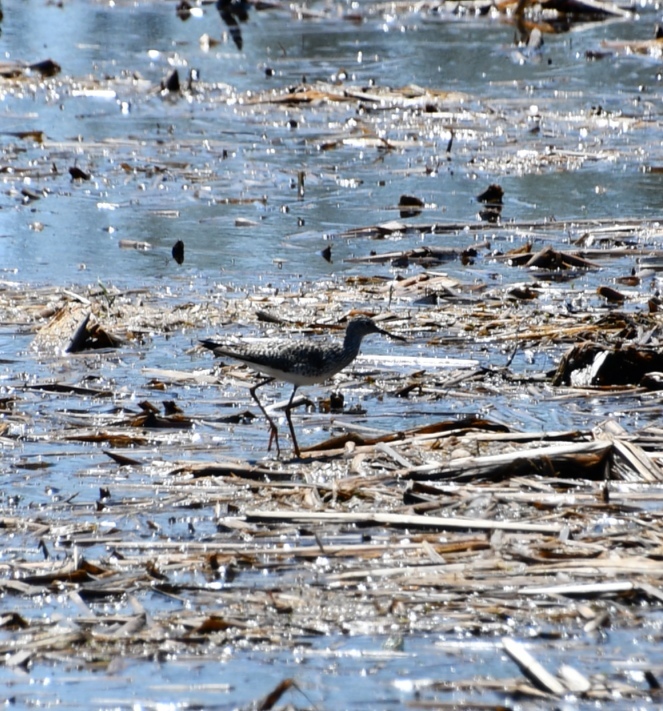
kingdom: Animalia
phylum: Chordata
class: Aves
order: Charadriiformes
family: Scolopacidae
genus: Tringa
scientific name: Tringa flavipes
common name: Lesser yellowlegs
